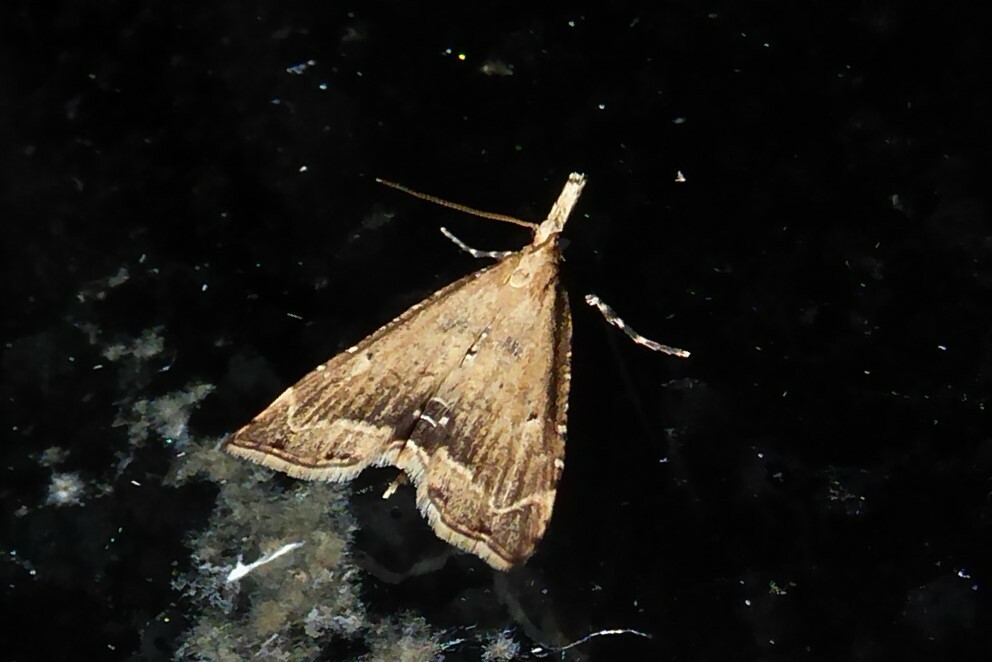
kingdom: Animalia
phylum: Arthropoda
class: Insecta
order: Lepidoptera
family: Crambidae
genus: Diplopseustis
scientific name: Diplopseustis perieresalis
